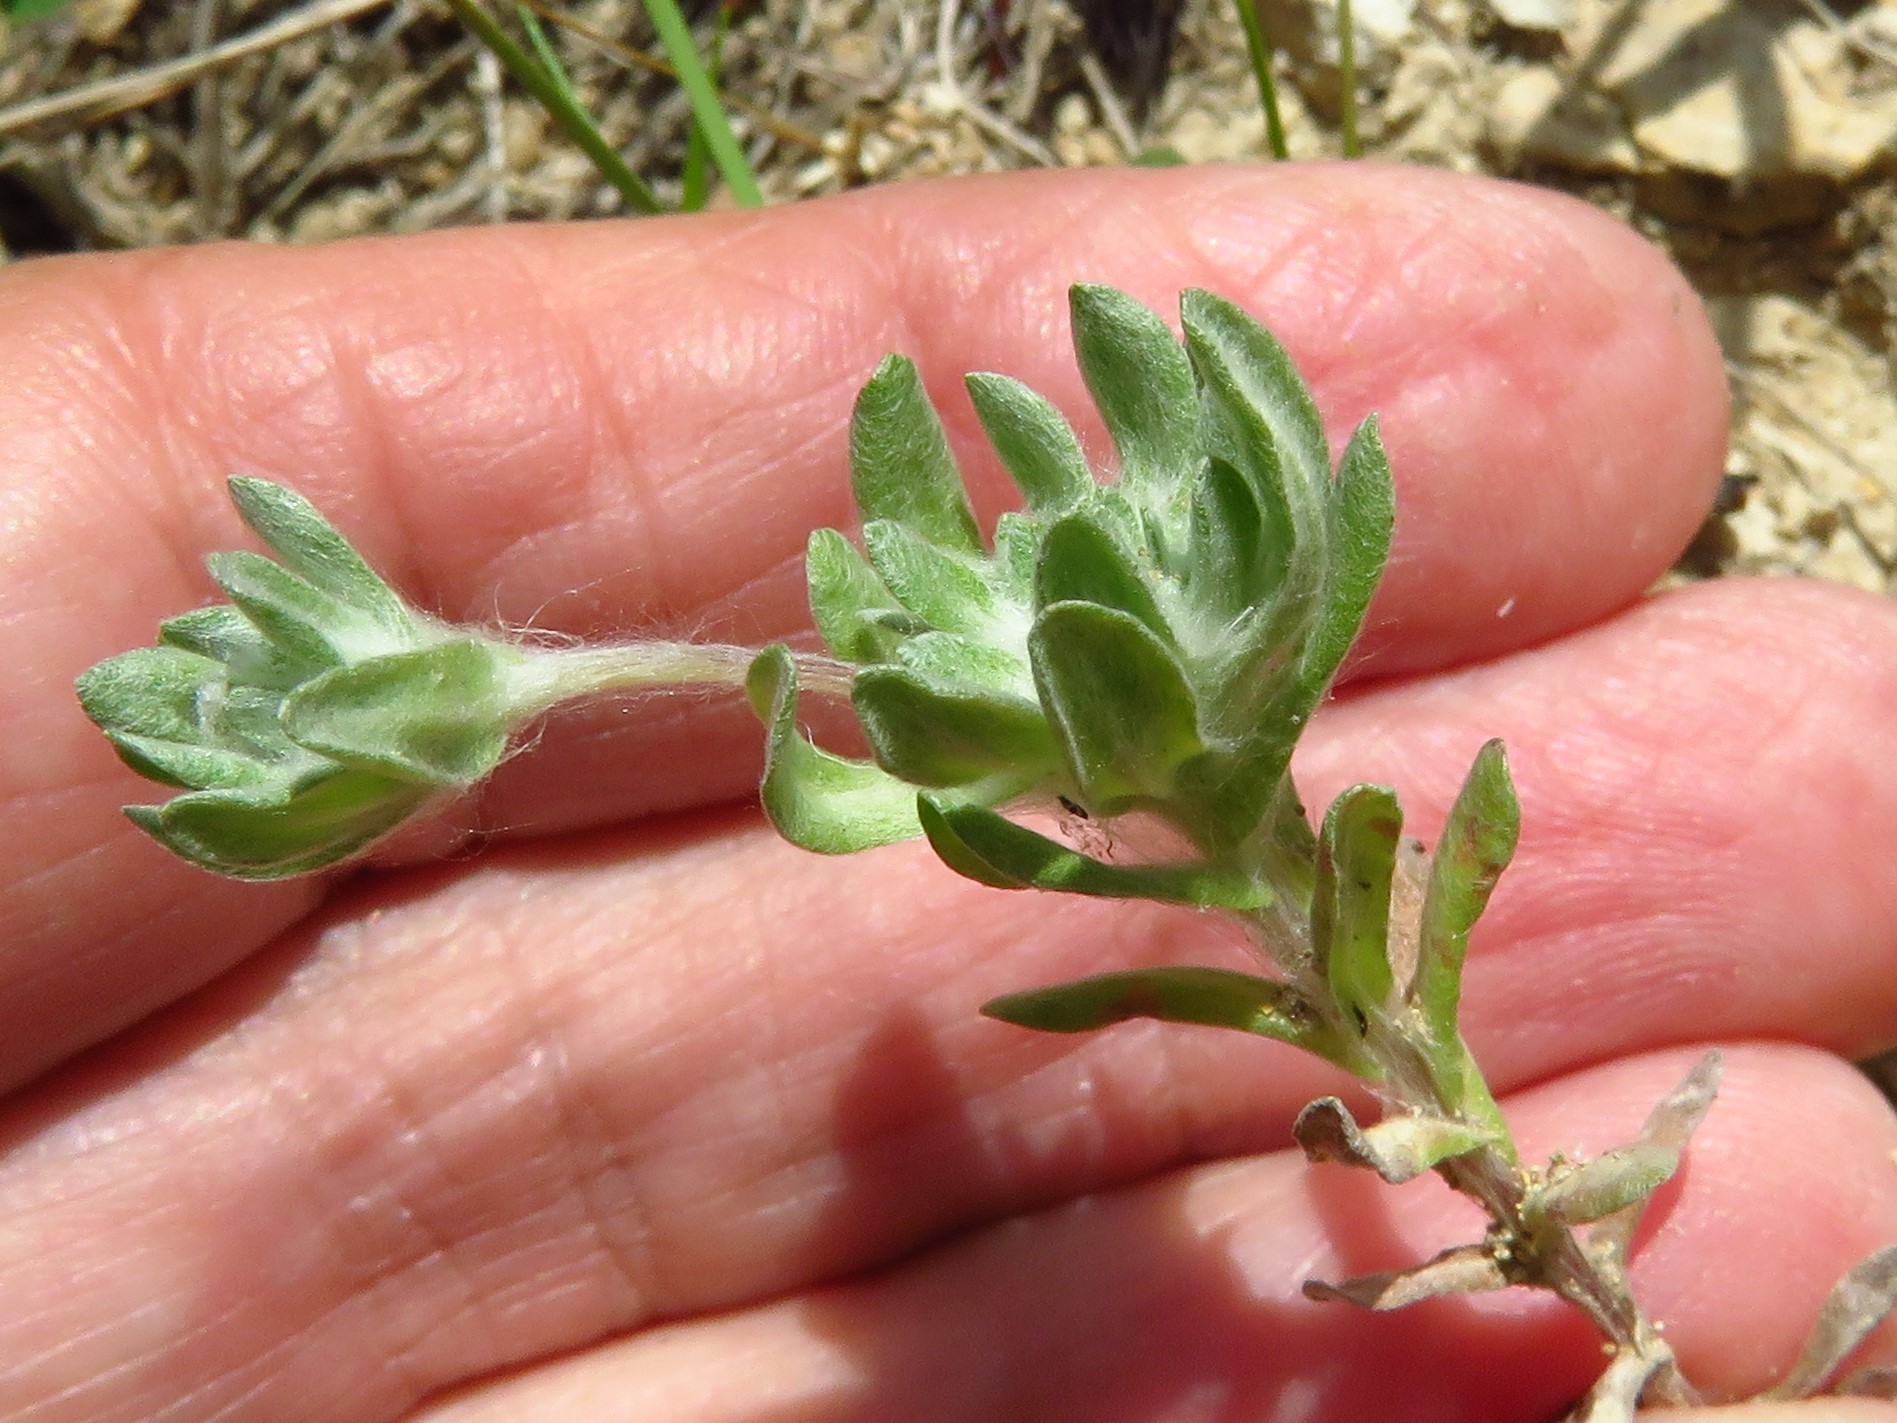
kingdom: Plantae
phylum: Tracheophyta
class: Magnoliopsida
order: Asterales
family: Asteraceae
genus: Diaperia
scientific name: Diaperia prolifera
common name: Big-head rabbit-tobacco
